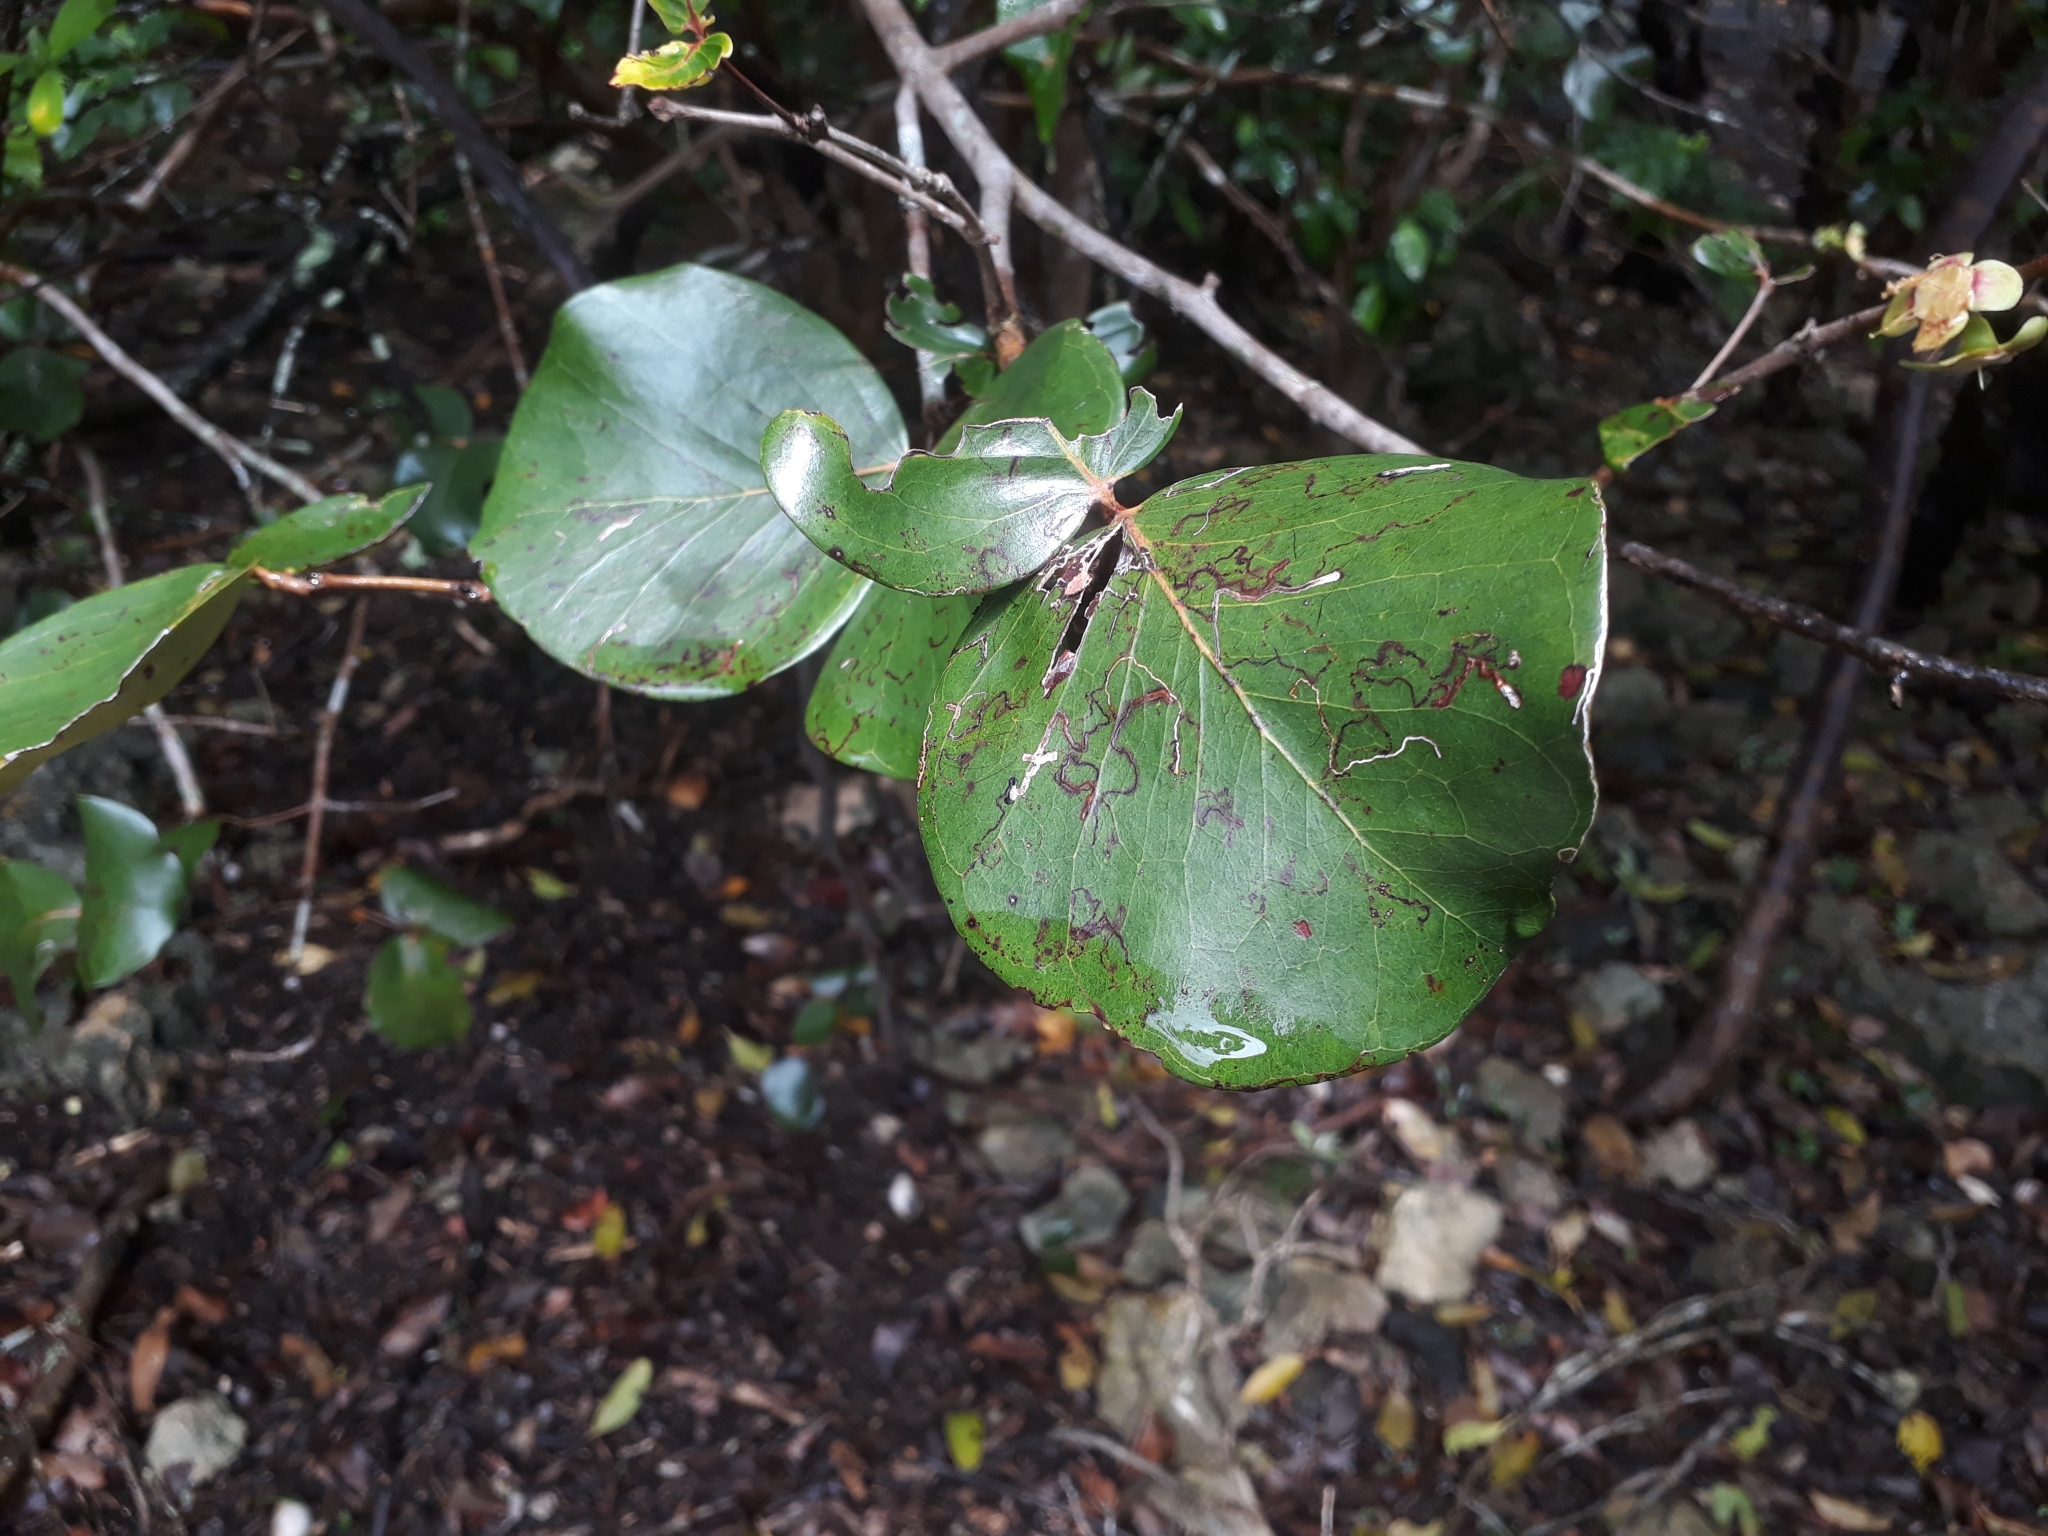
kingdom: Plantae
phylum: Tracheophyta
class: Magnoliopsida
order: Myrtales
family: Myrtaceae
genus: Eugenia
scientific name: Eugenia lucida
